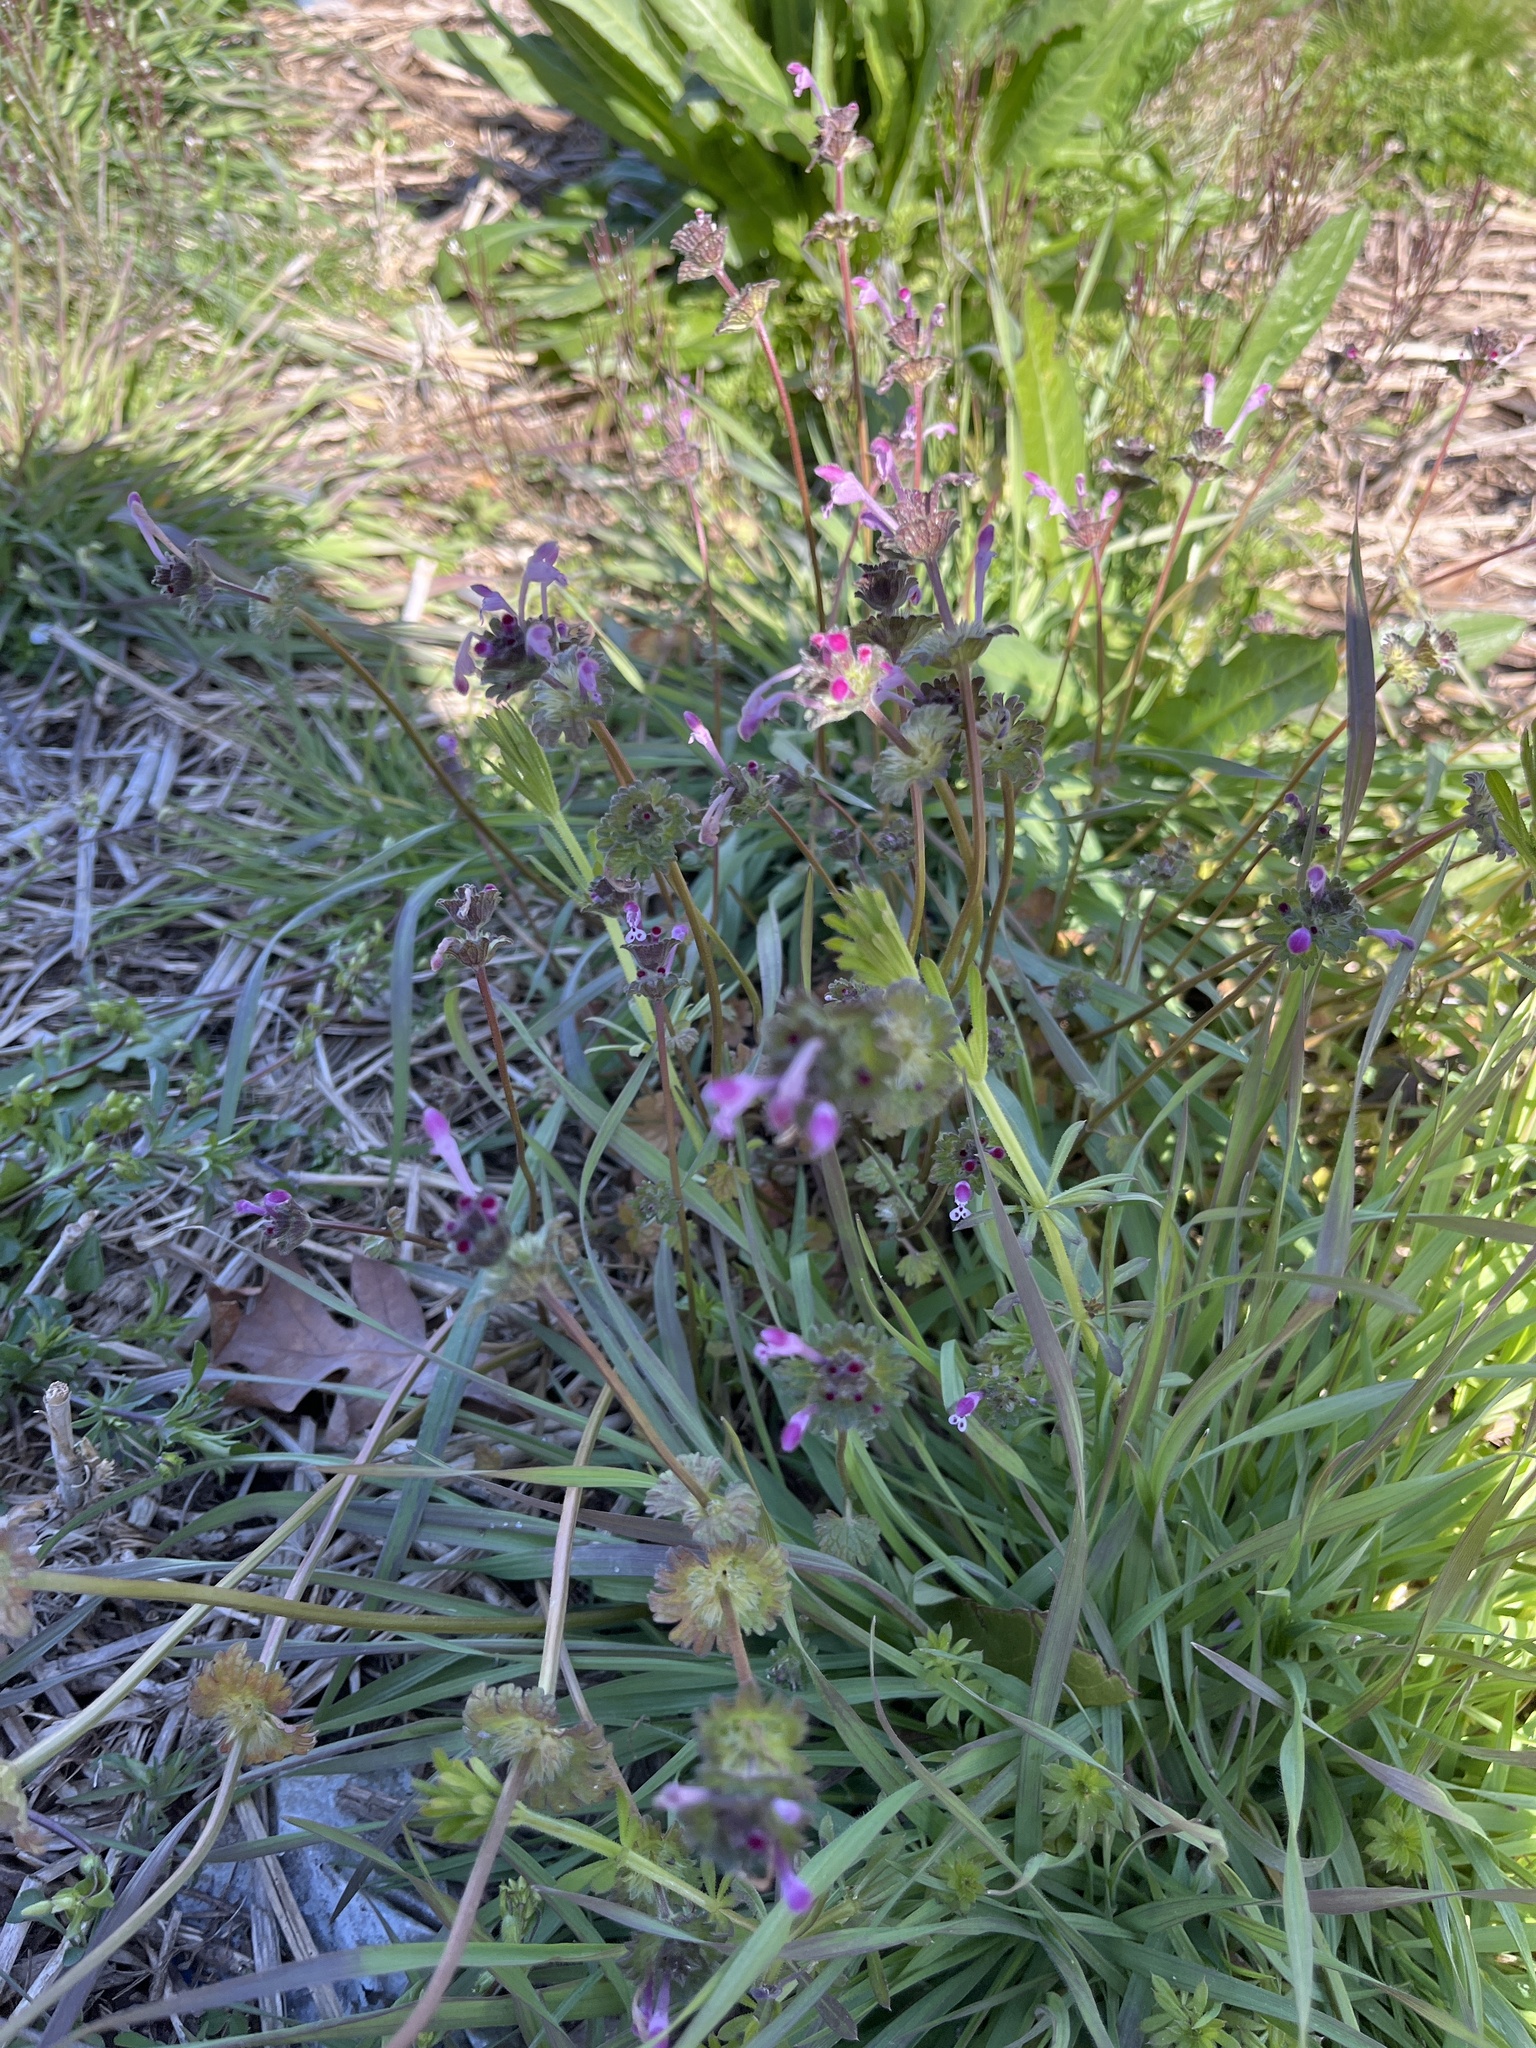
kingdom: Plantae
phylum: Tracheophyta
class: Magnoliopsida
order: Lamiales
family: Lamiaceae
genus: Lamium
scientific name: Lamium amplexicaule
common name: Henbit dead-nettle
